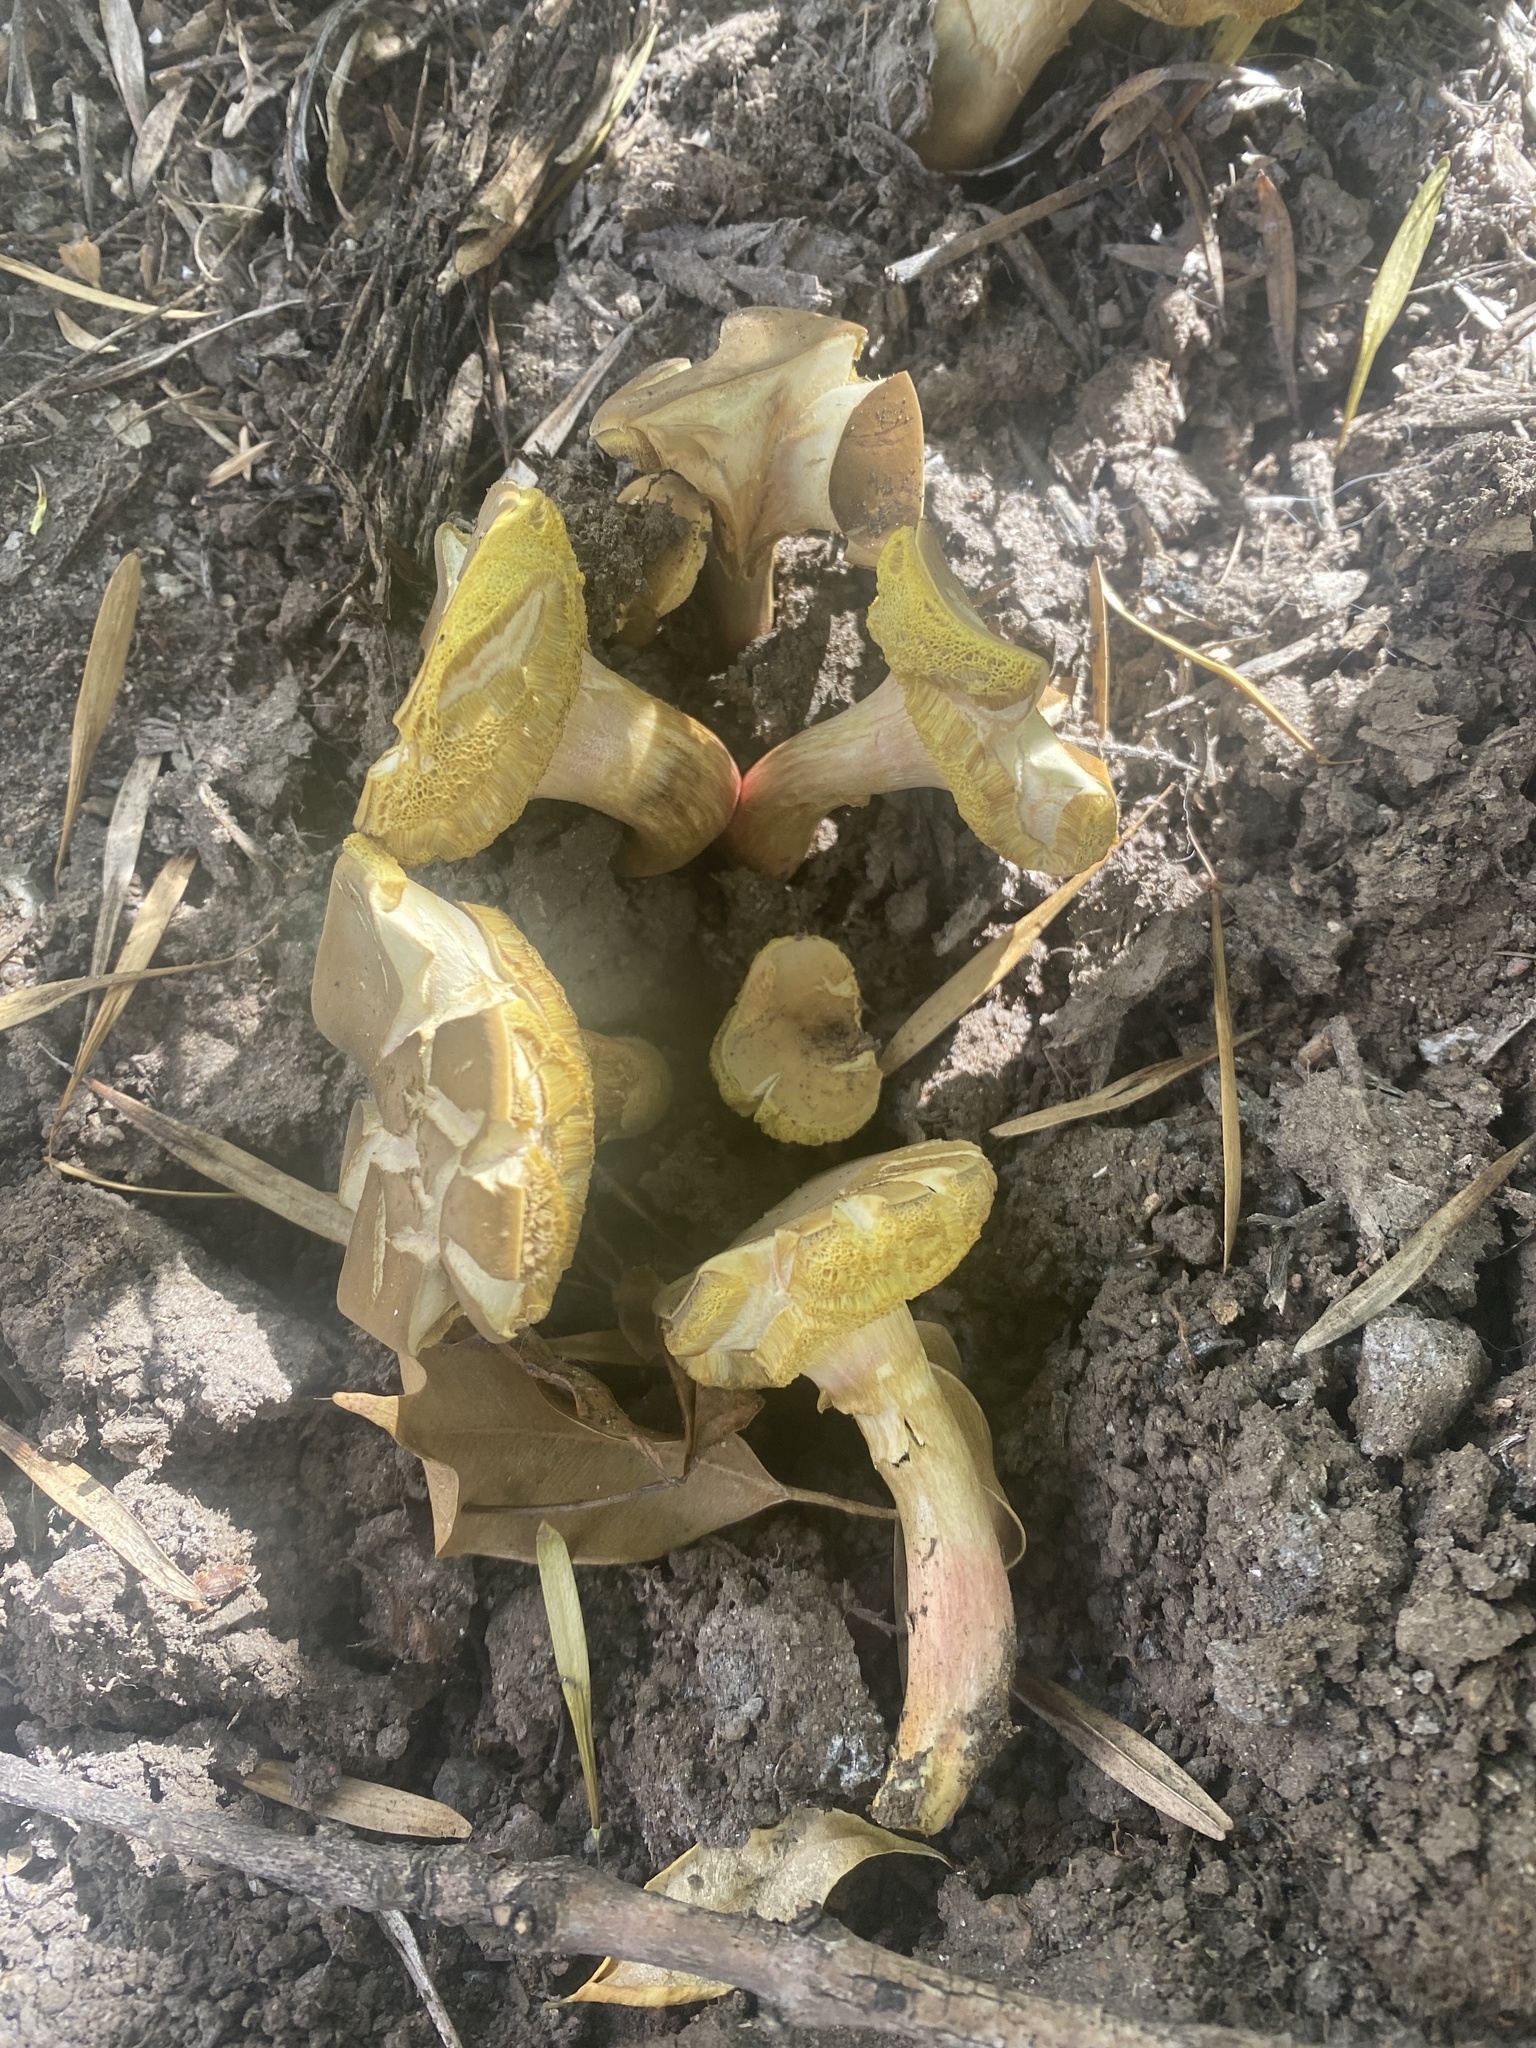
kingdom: Fungi
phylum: Basidiomycota
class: Agaricomycetes
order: Boletales
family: Boletaceae
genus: Xerocomellus
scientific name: Xerocomellus chrysenteron
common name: Red-cracking bolete
